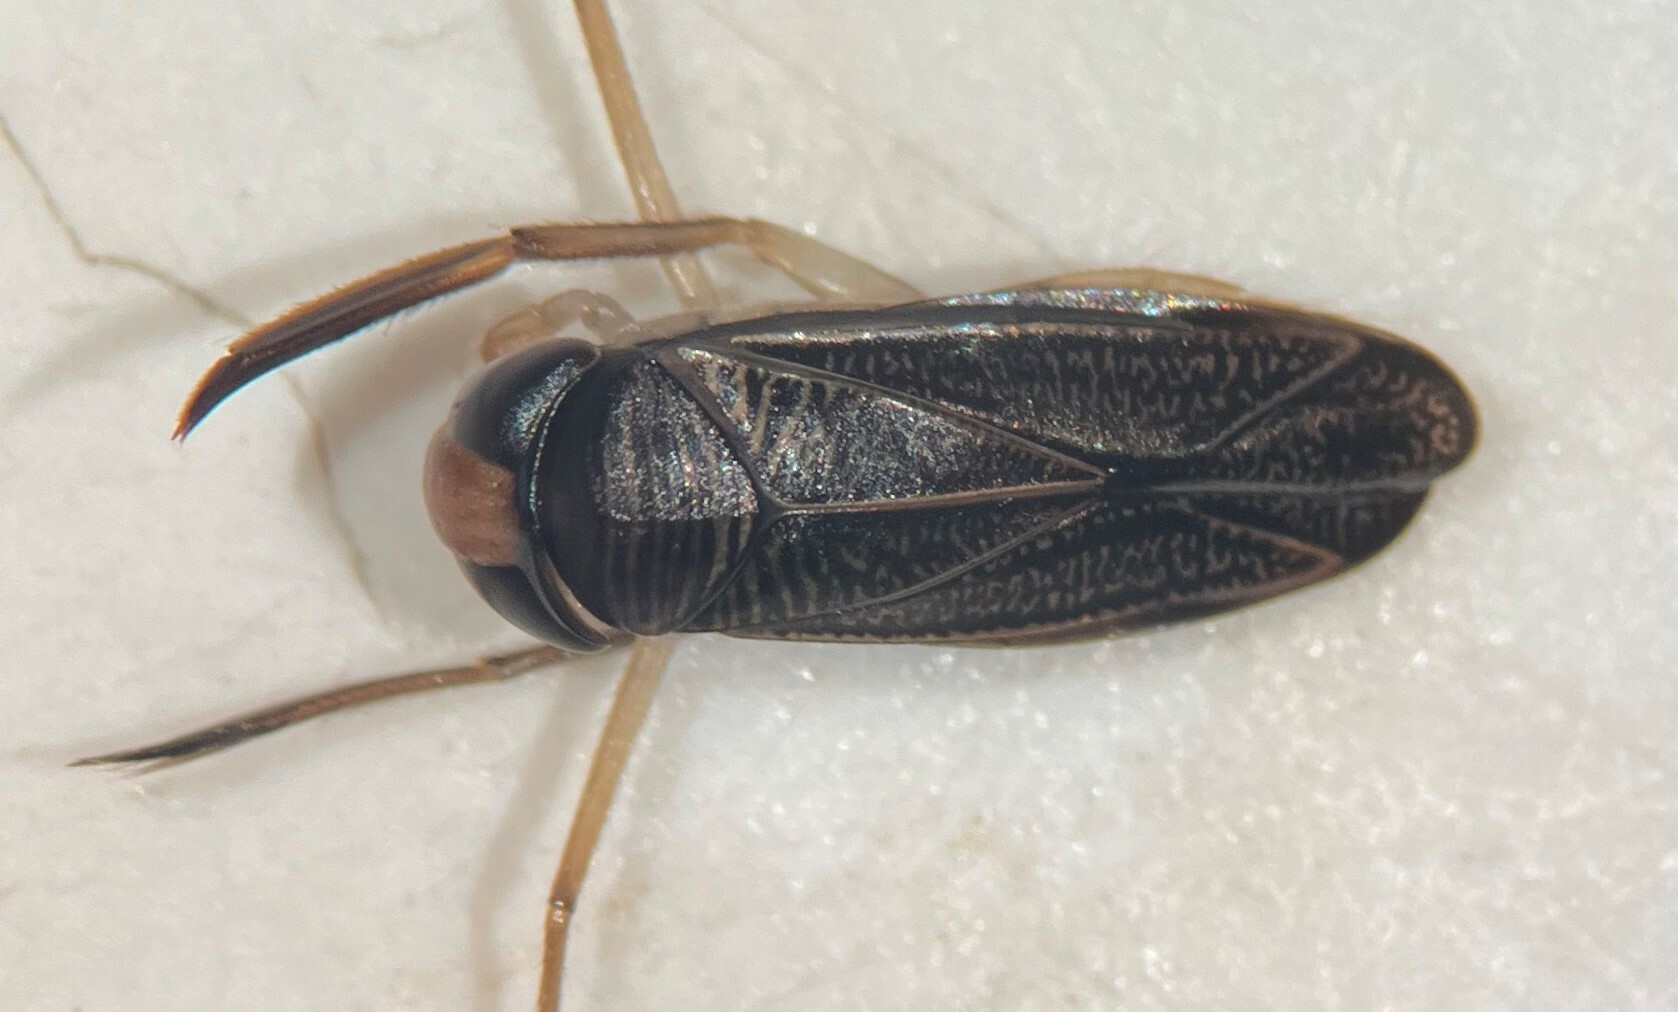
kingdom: Animalia
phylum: Arthropoda
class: Insecta
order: Hemiptera
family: Corixidae
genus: Sigara
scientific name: Sigara penniensis
